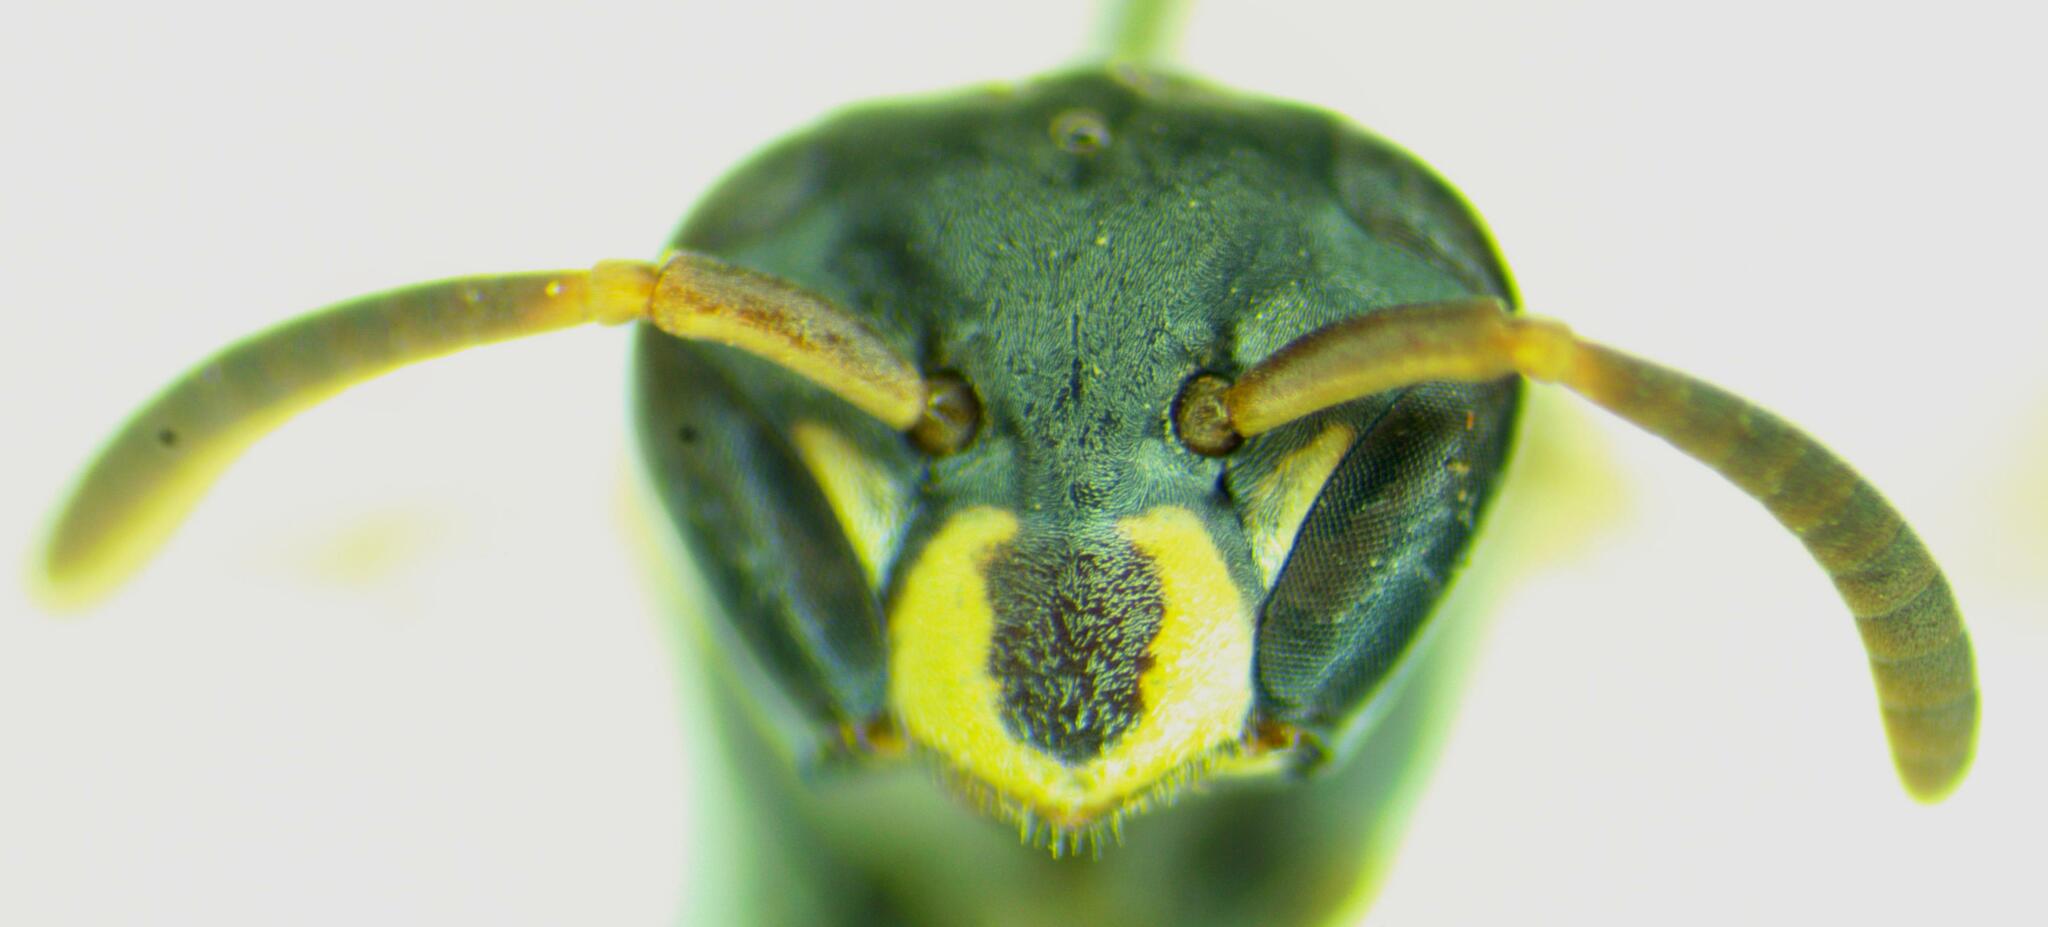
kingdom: Animalia
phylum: Arthropoda
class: Insecta
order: Hymenoptera
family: Eumenidae
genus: Polybia
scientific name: Polybia occidentalis
